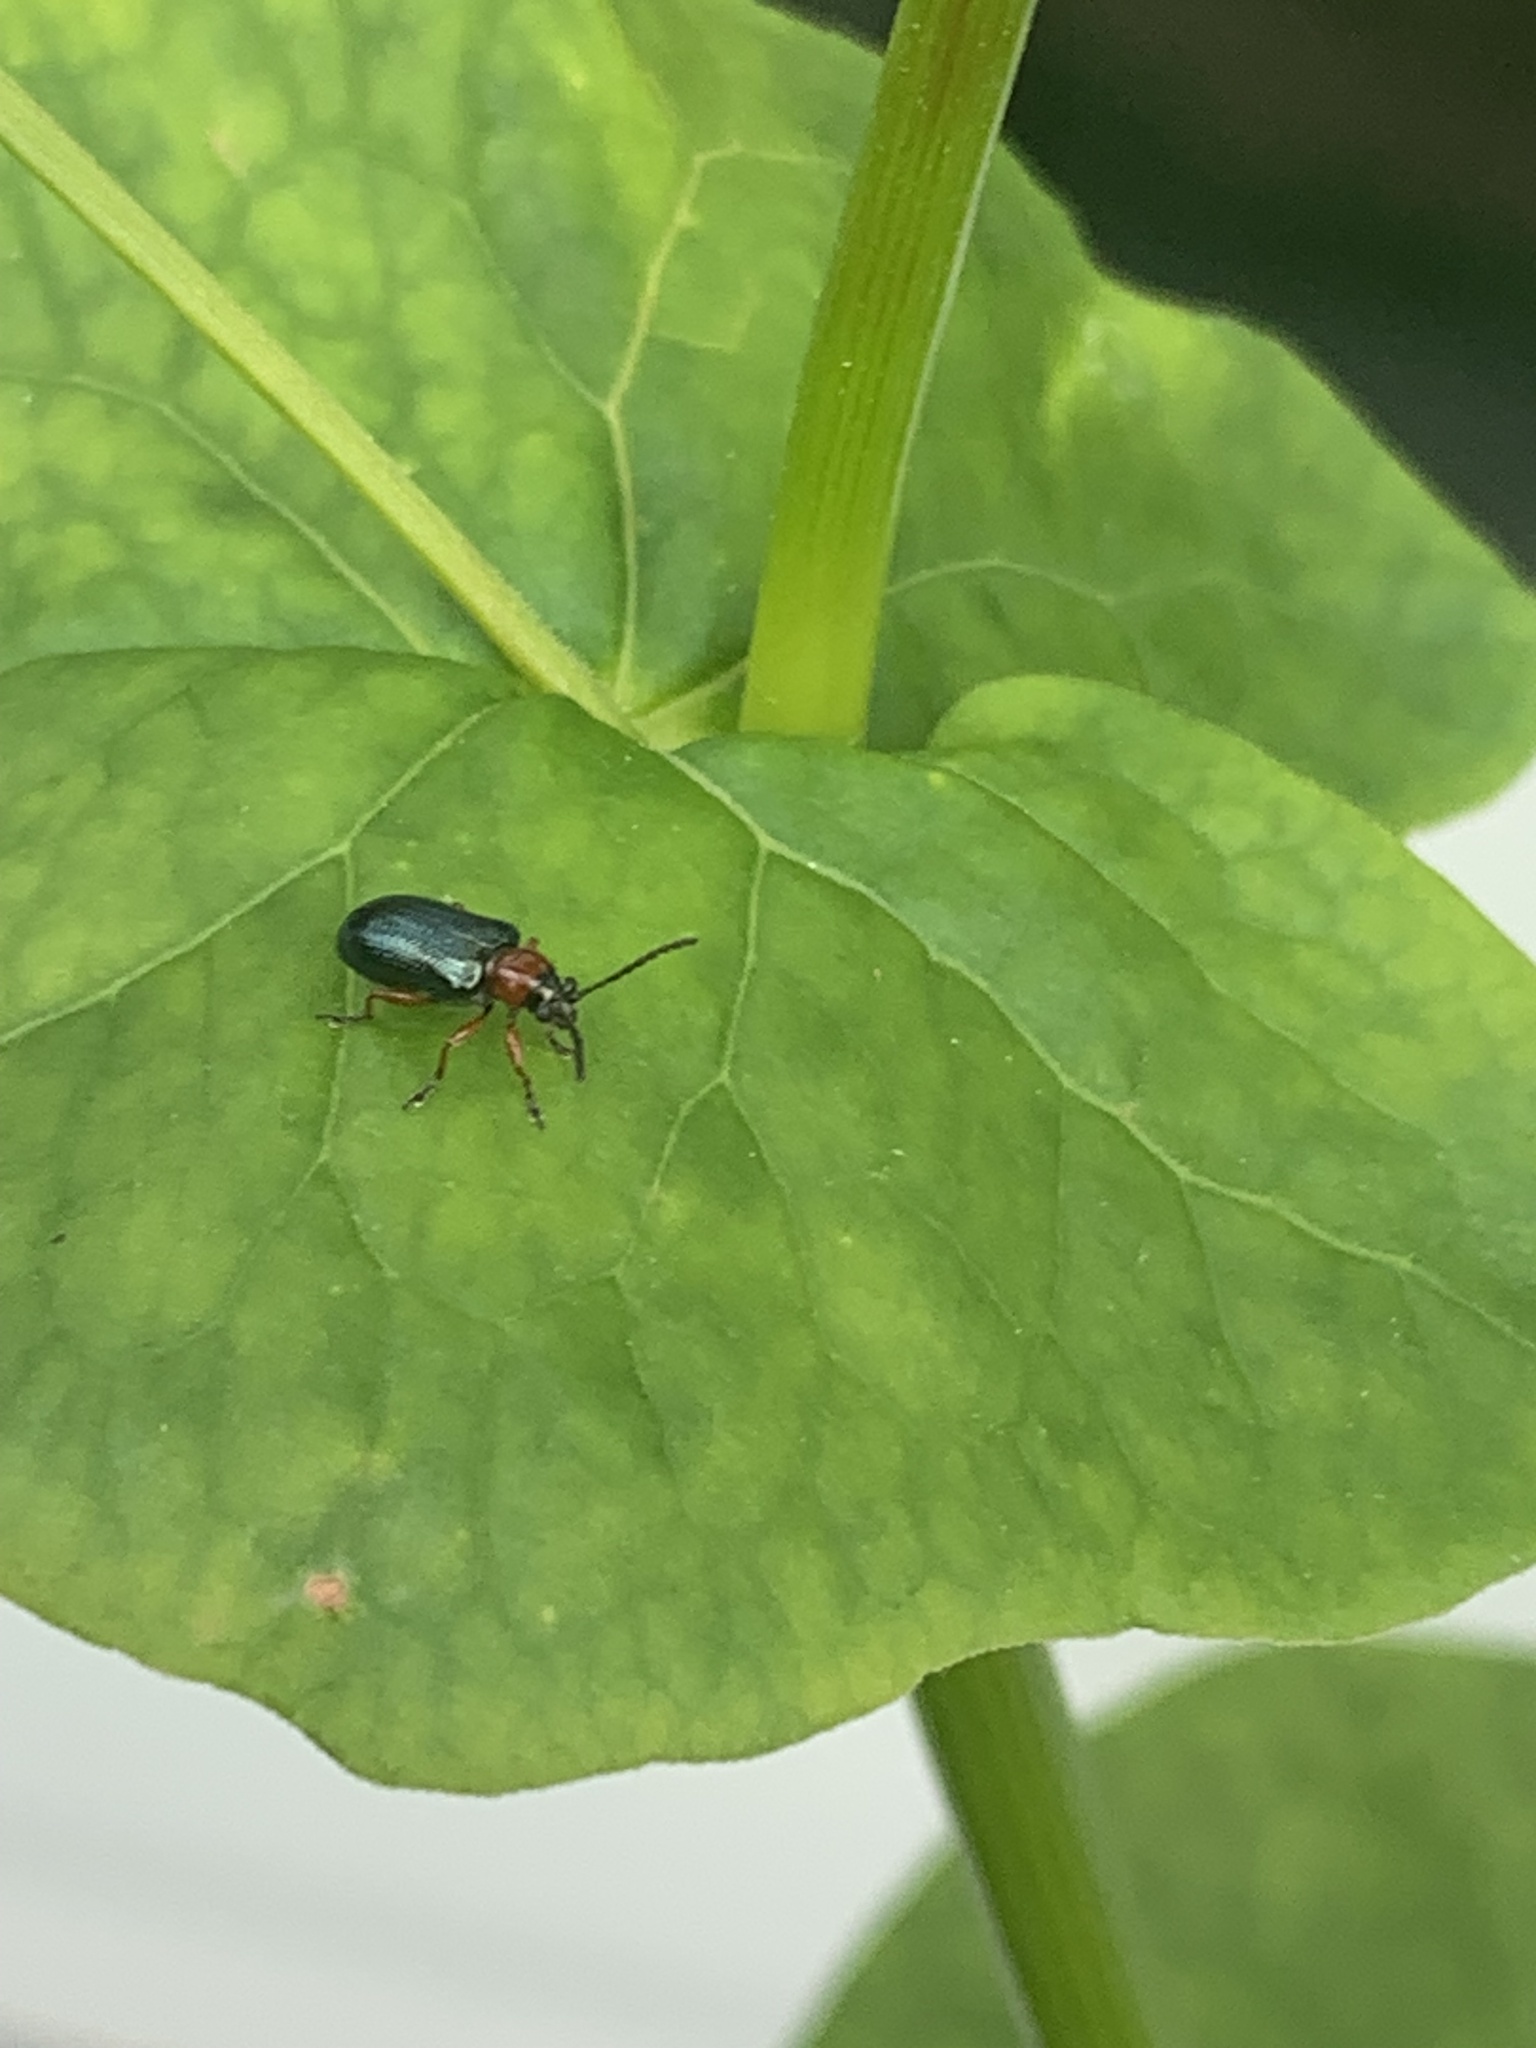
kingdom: Animalia
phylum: Arthropoda
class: Insecta
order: Coleoptera
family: Chrysomelidae
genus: Oulema
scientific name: Oulema
